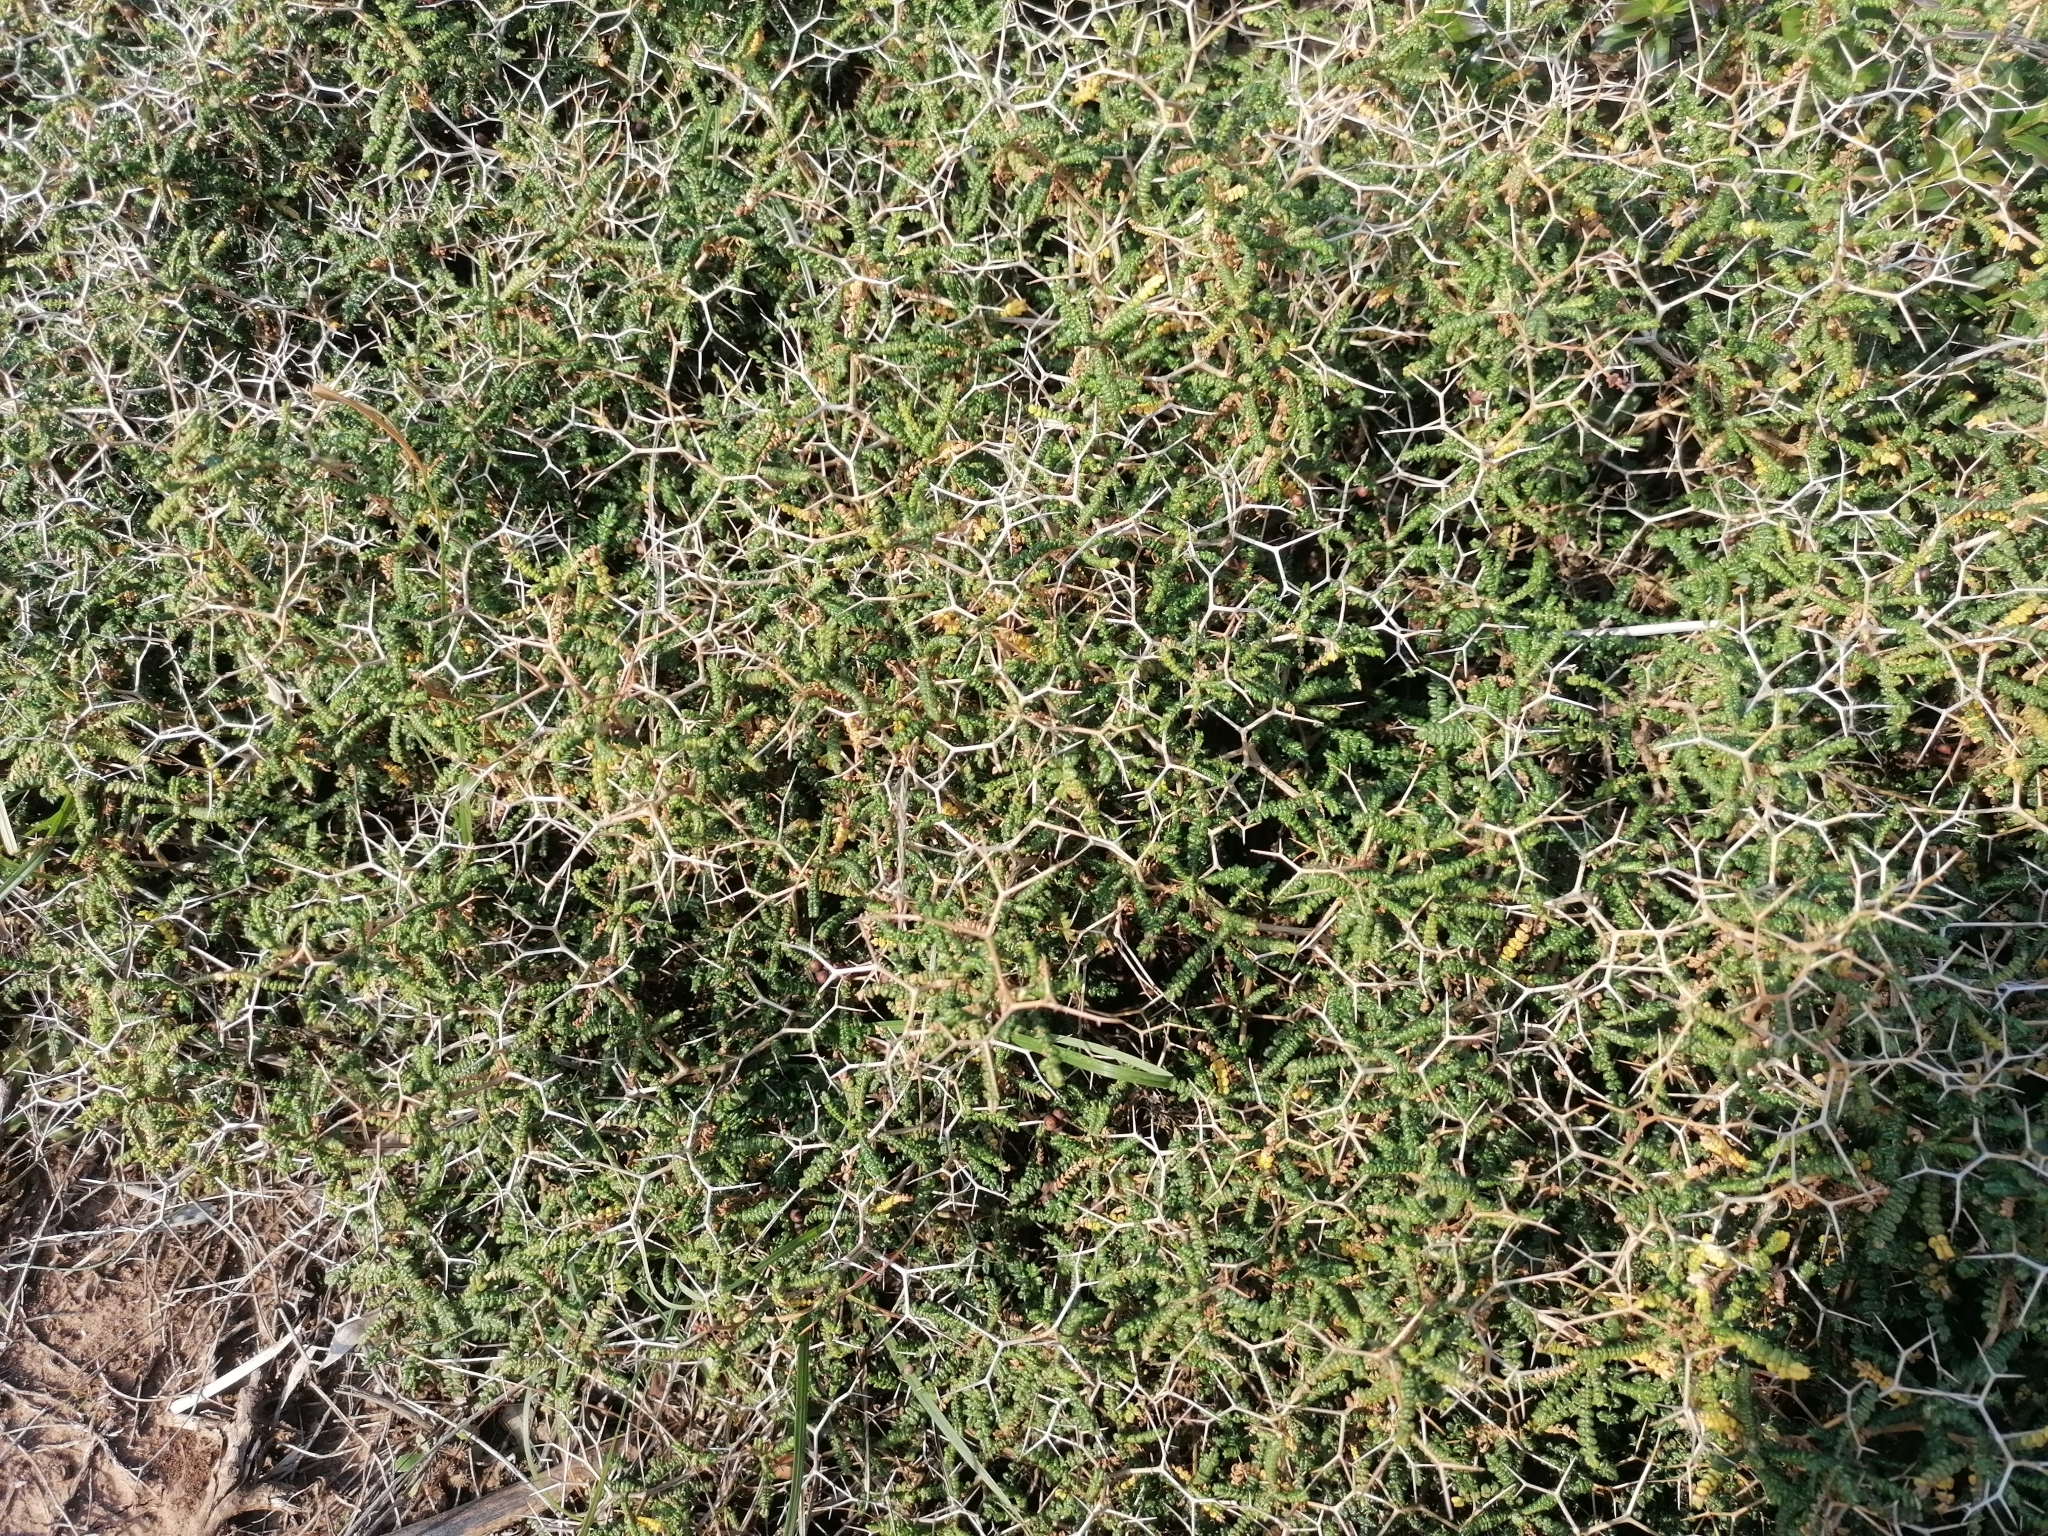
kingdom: Plantae
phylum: Tracheophyta
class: Magnoliopsida
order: Rosales
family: Rosaceae
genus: Sarcopoterium
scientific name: Sarcopoterium spinosum
